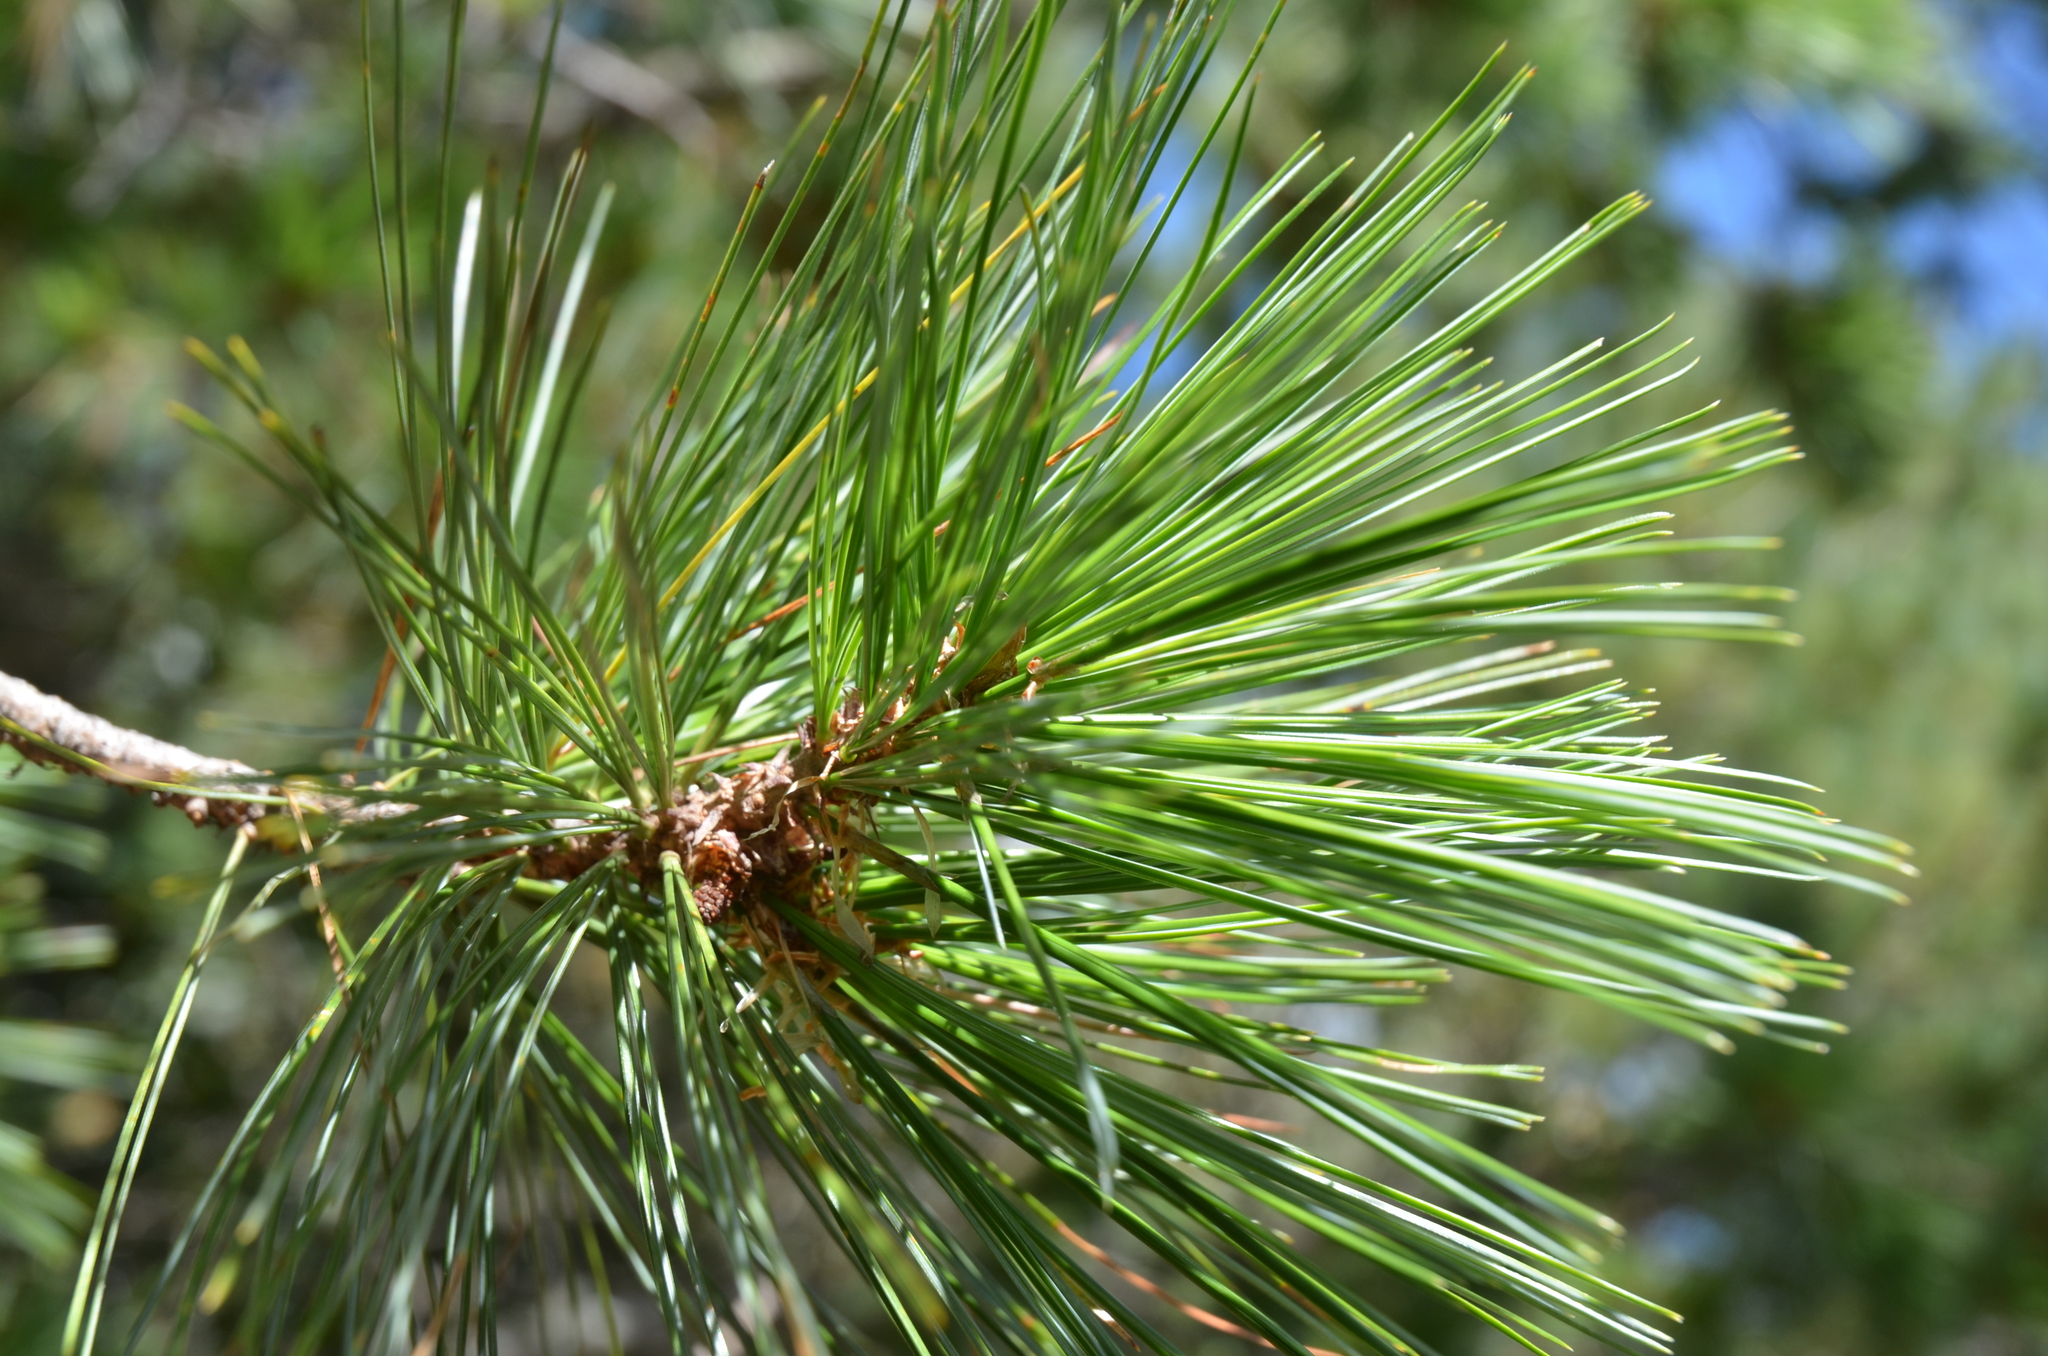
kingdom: Plantae
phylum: Tracheophyta
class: Pinopsida
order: Pinales
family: Pinaceae
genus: Pinus
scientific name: Pinus flexilis
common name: Limber pine
